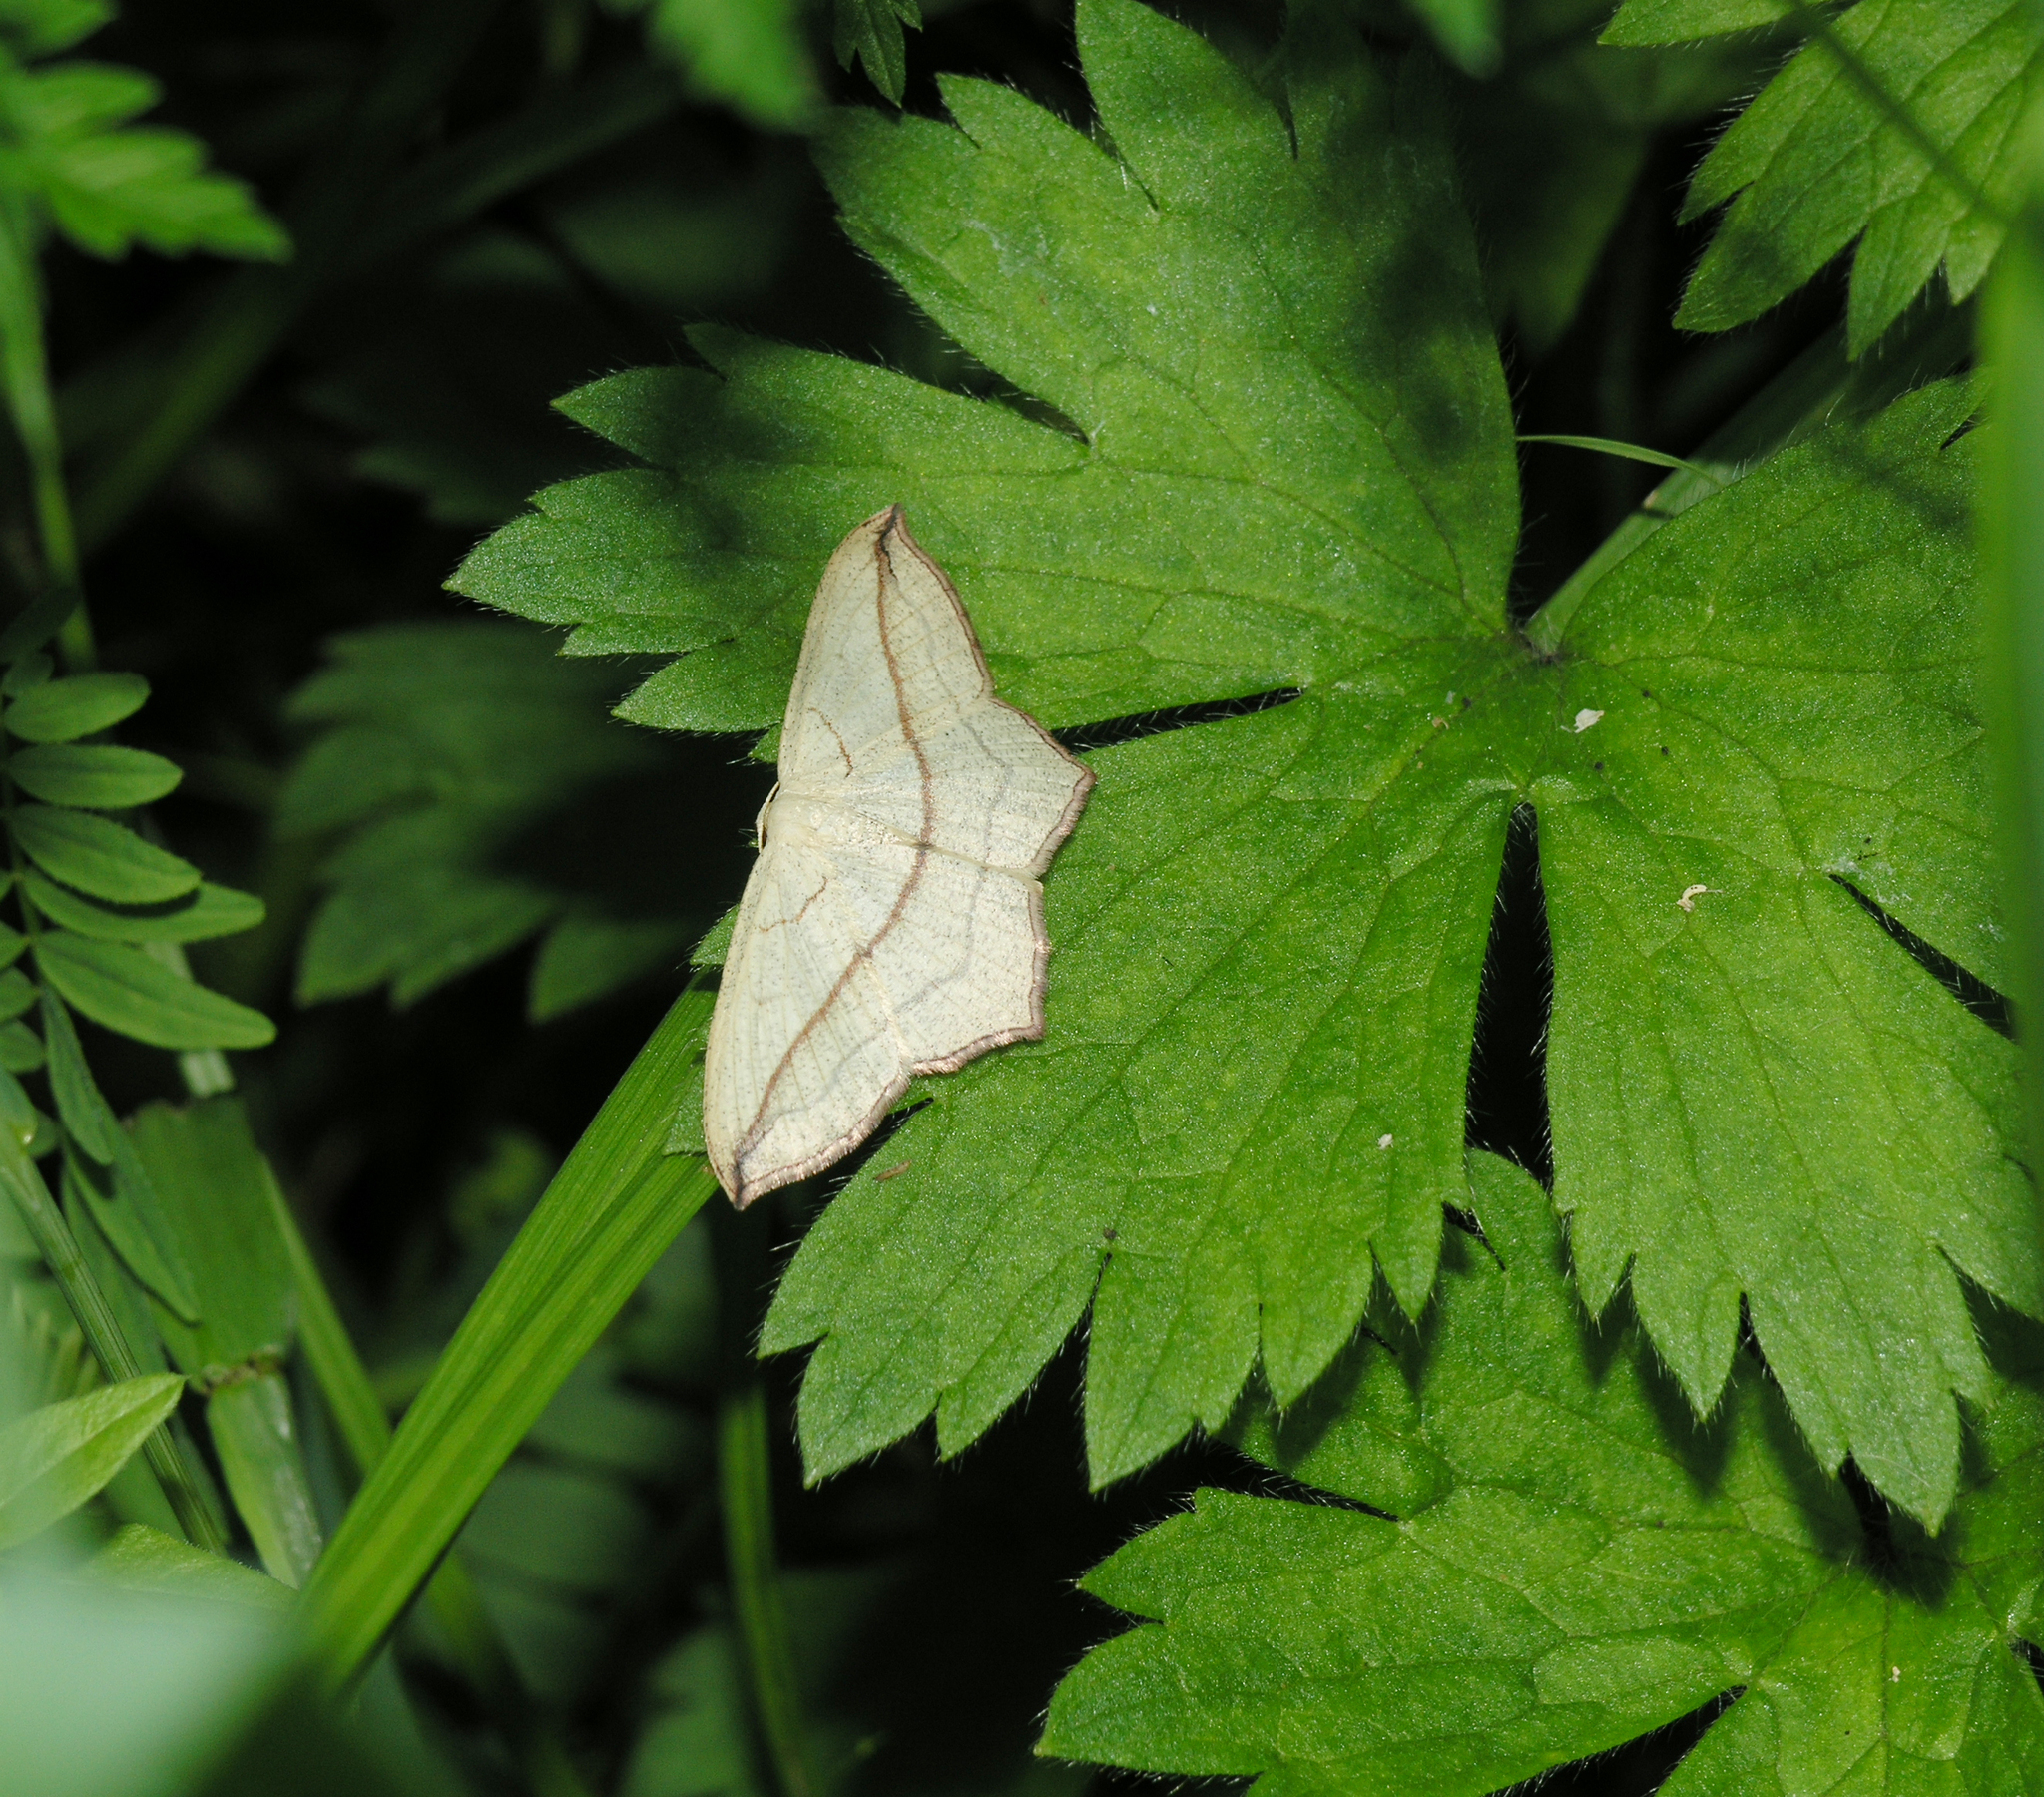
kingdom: Animalia
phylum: Arthropoda
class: Insecta
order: Lepidoptera
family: Geometridae
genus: Timandra
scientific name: Timandra comae
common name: Blood-vein
